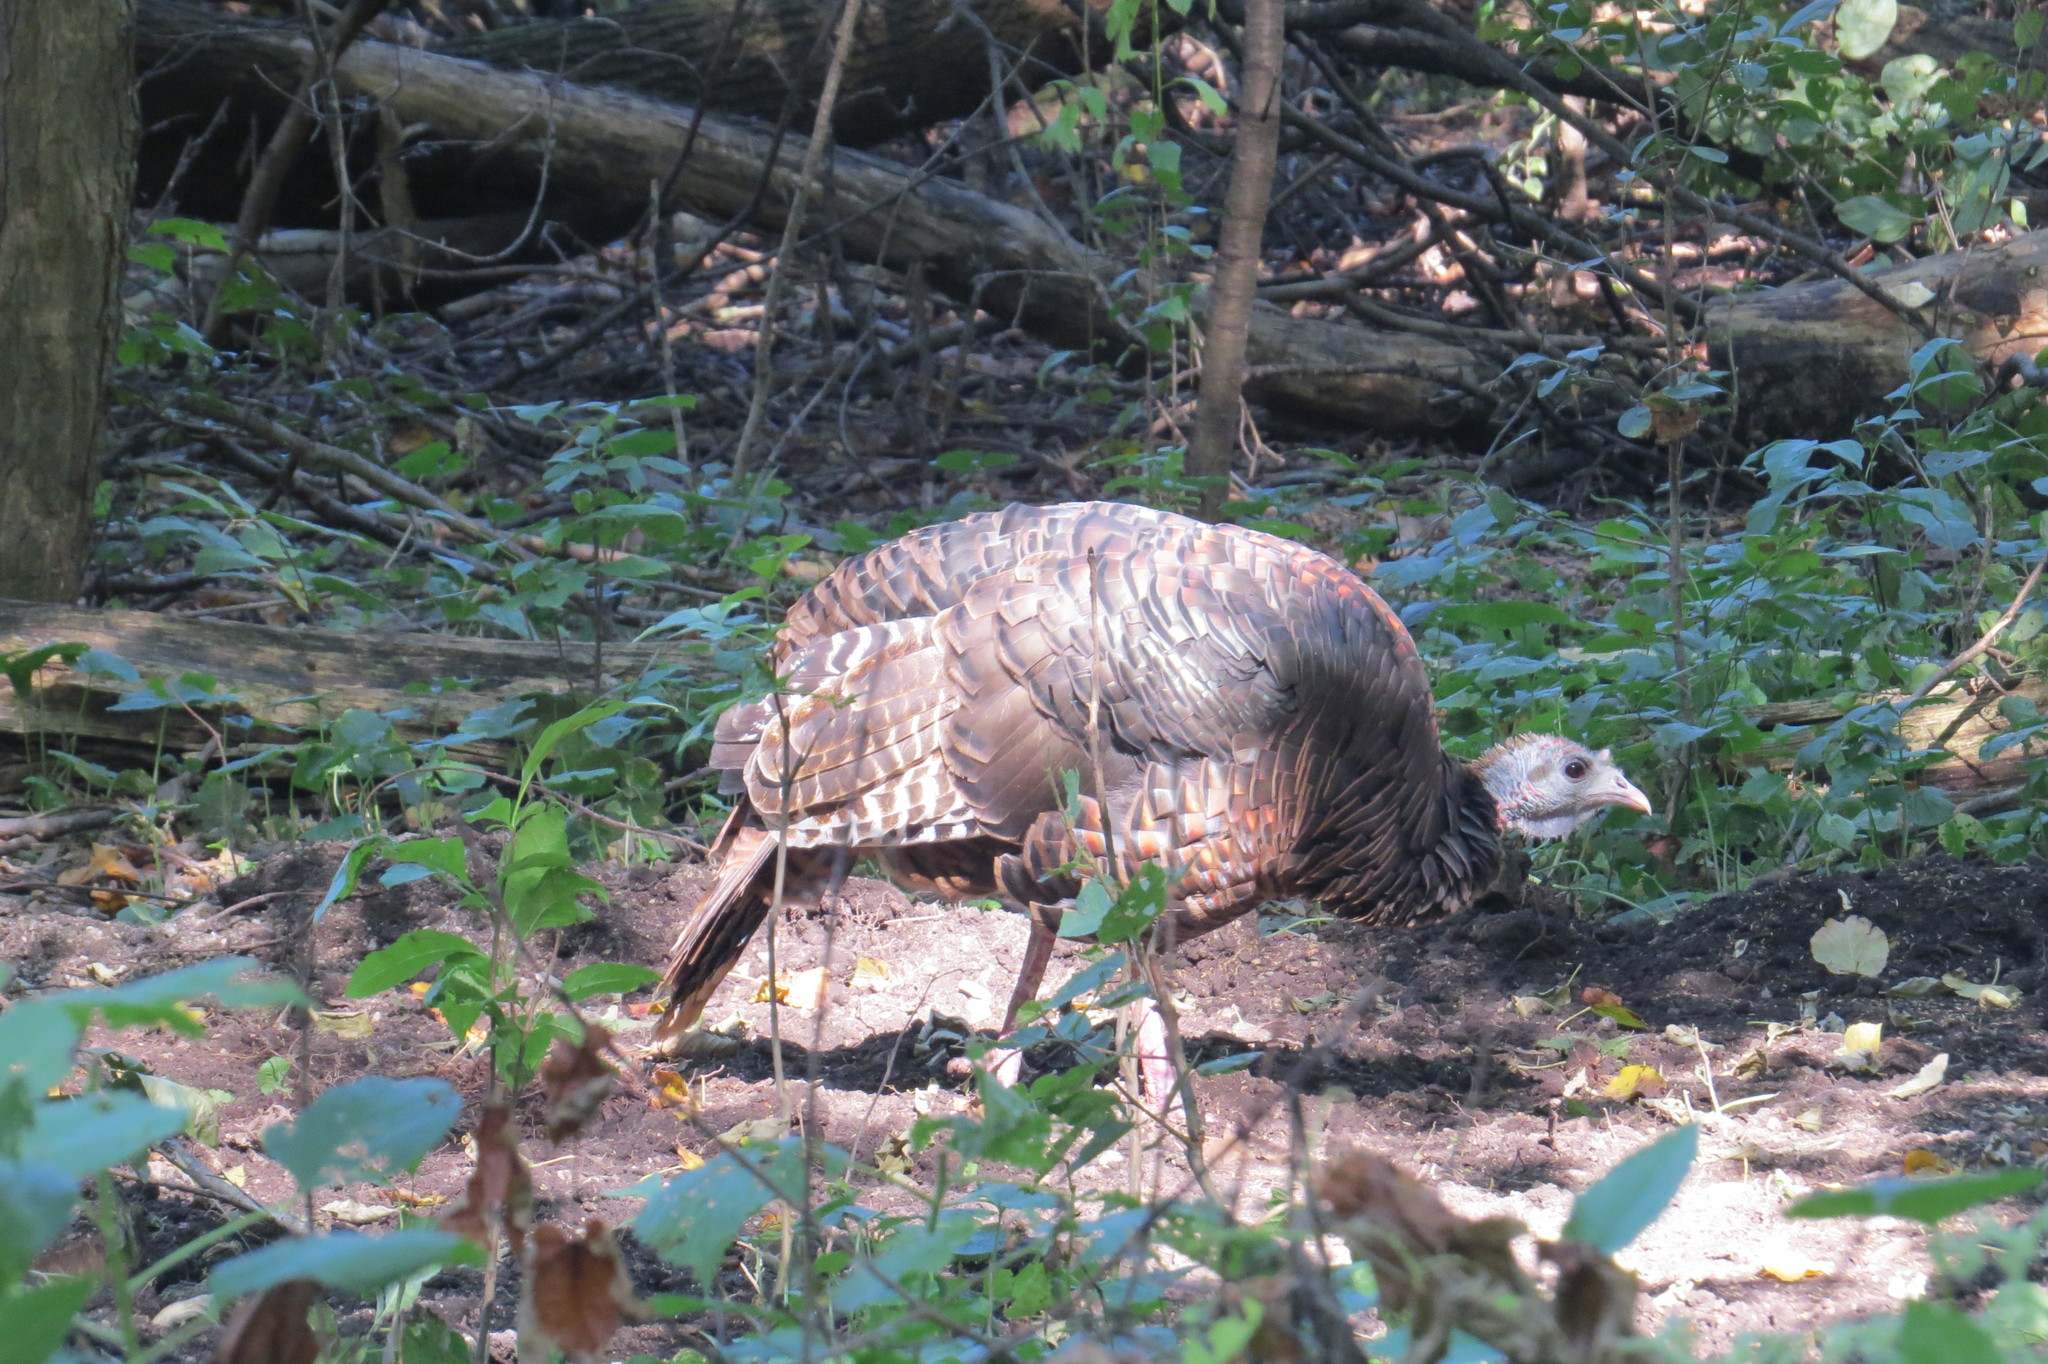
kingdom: Animalia
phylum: Chordata
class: Aves
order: Galliformes
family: Phasianidae
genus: Meleagris
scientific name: Meleagris gallopavo
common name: Wild turkey
